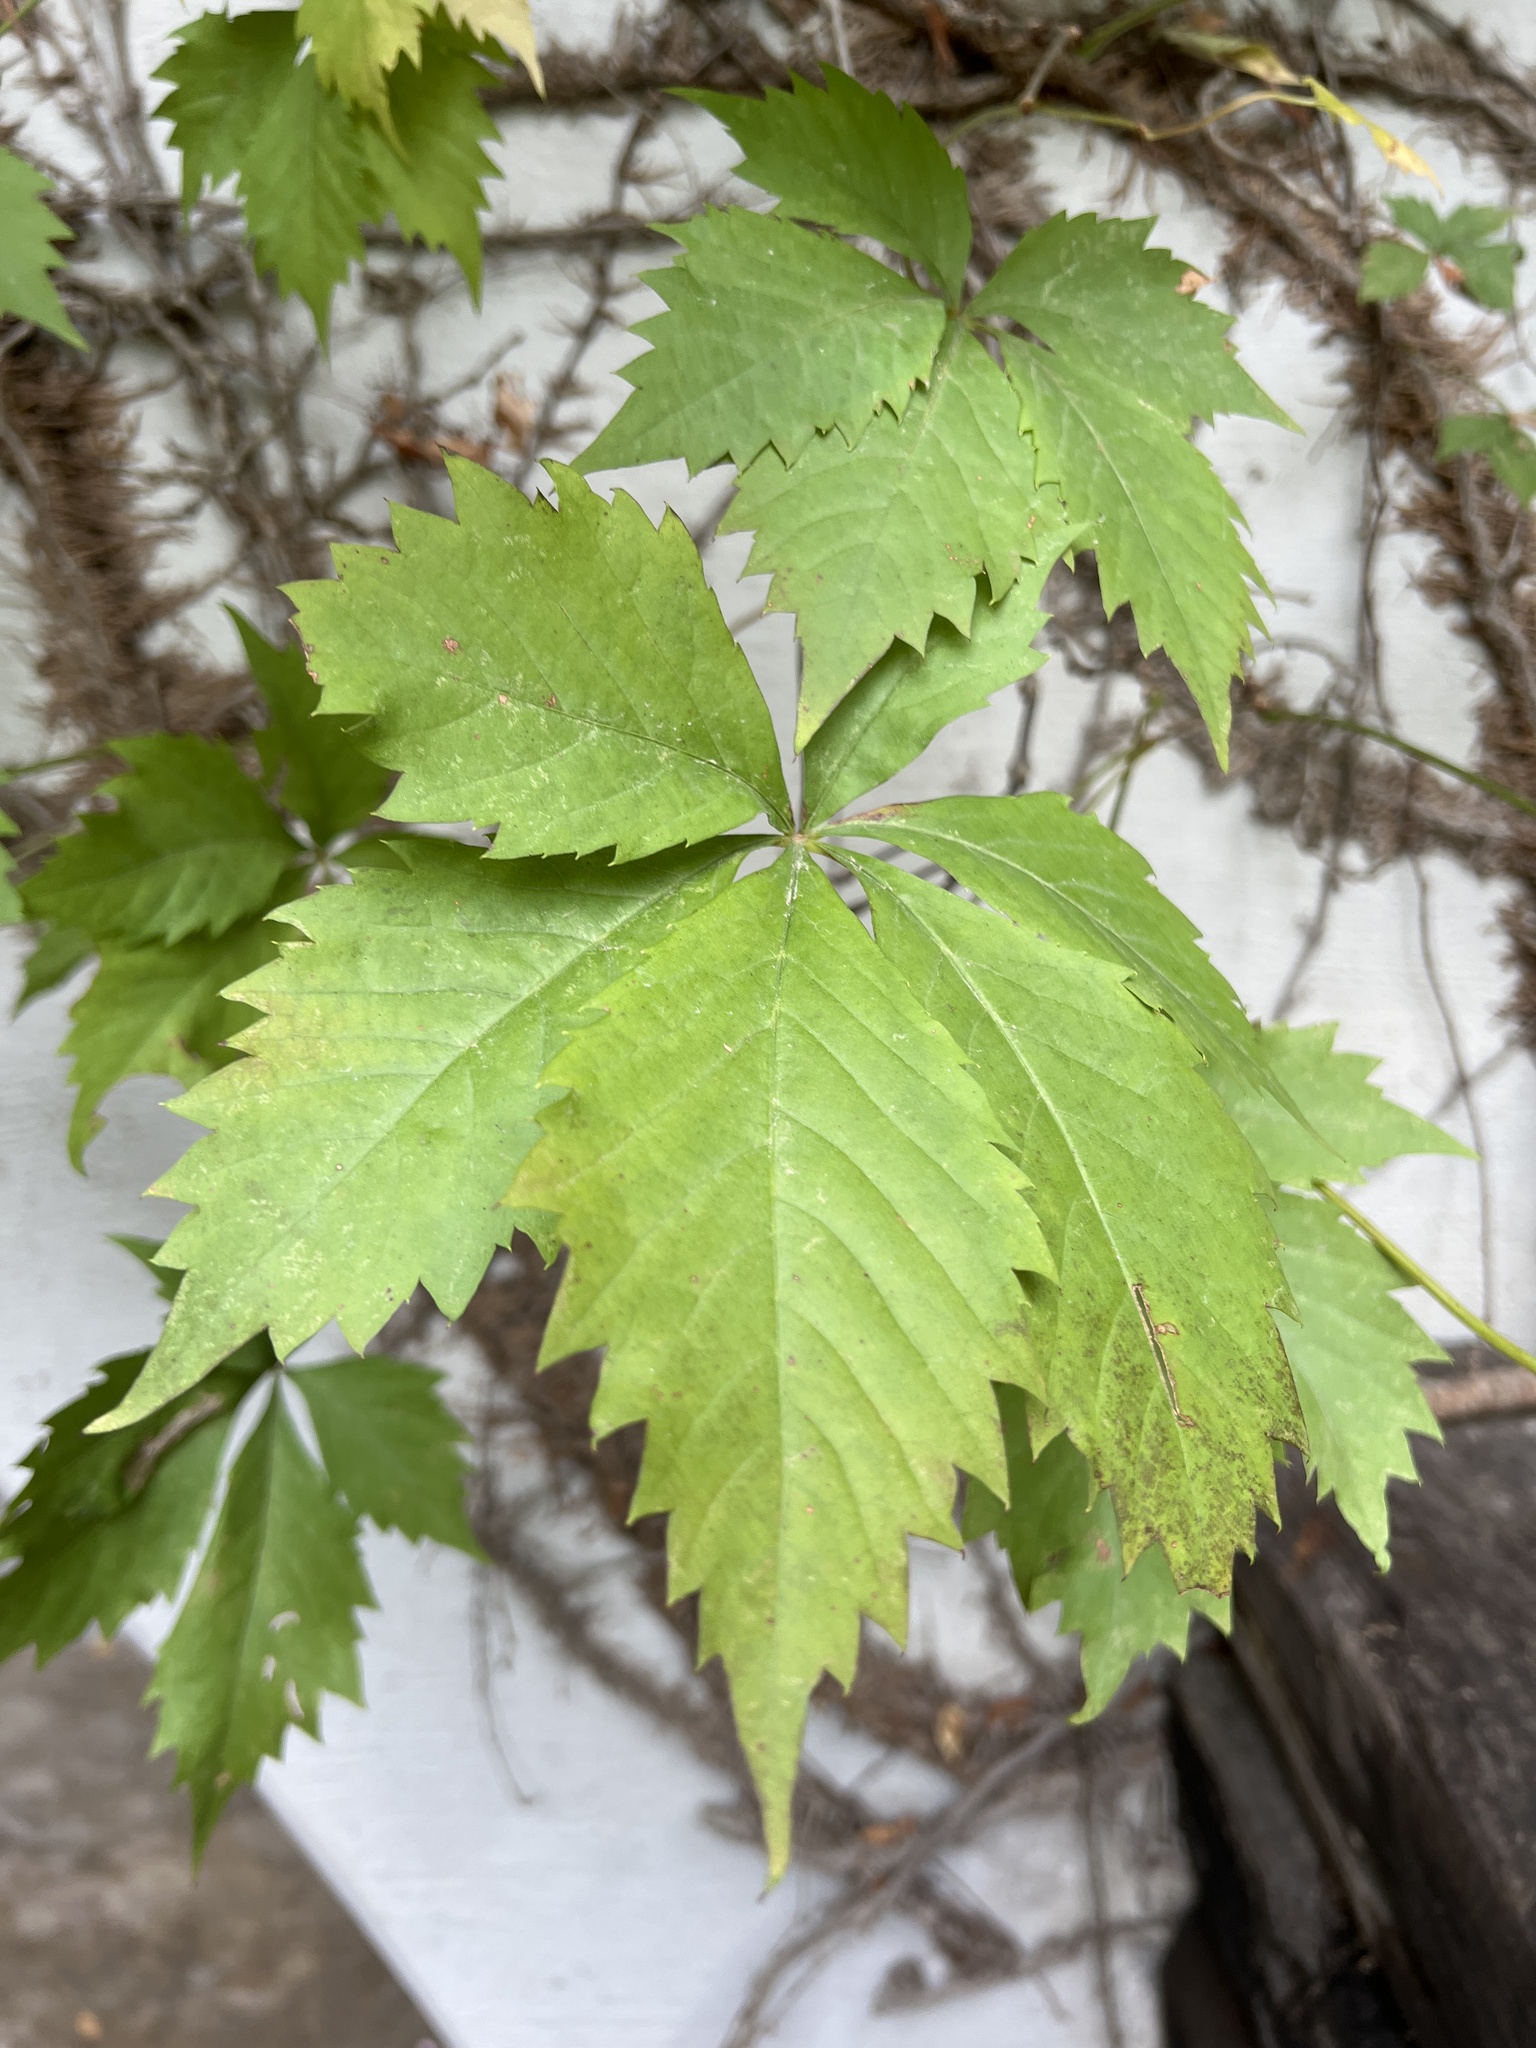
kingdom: Plantae
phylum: Tracheophyta
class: Magnoliopsida
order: Vitales
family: Vitaceae
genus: Parthenocissus
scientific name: Parthenocissus quinquefolia
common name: Virginia-creeper
